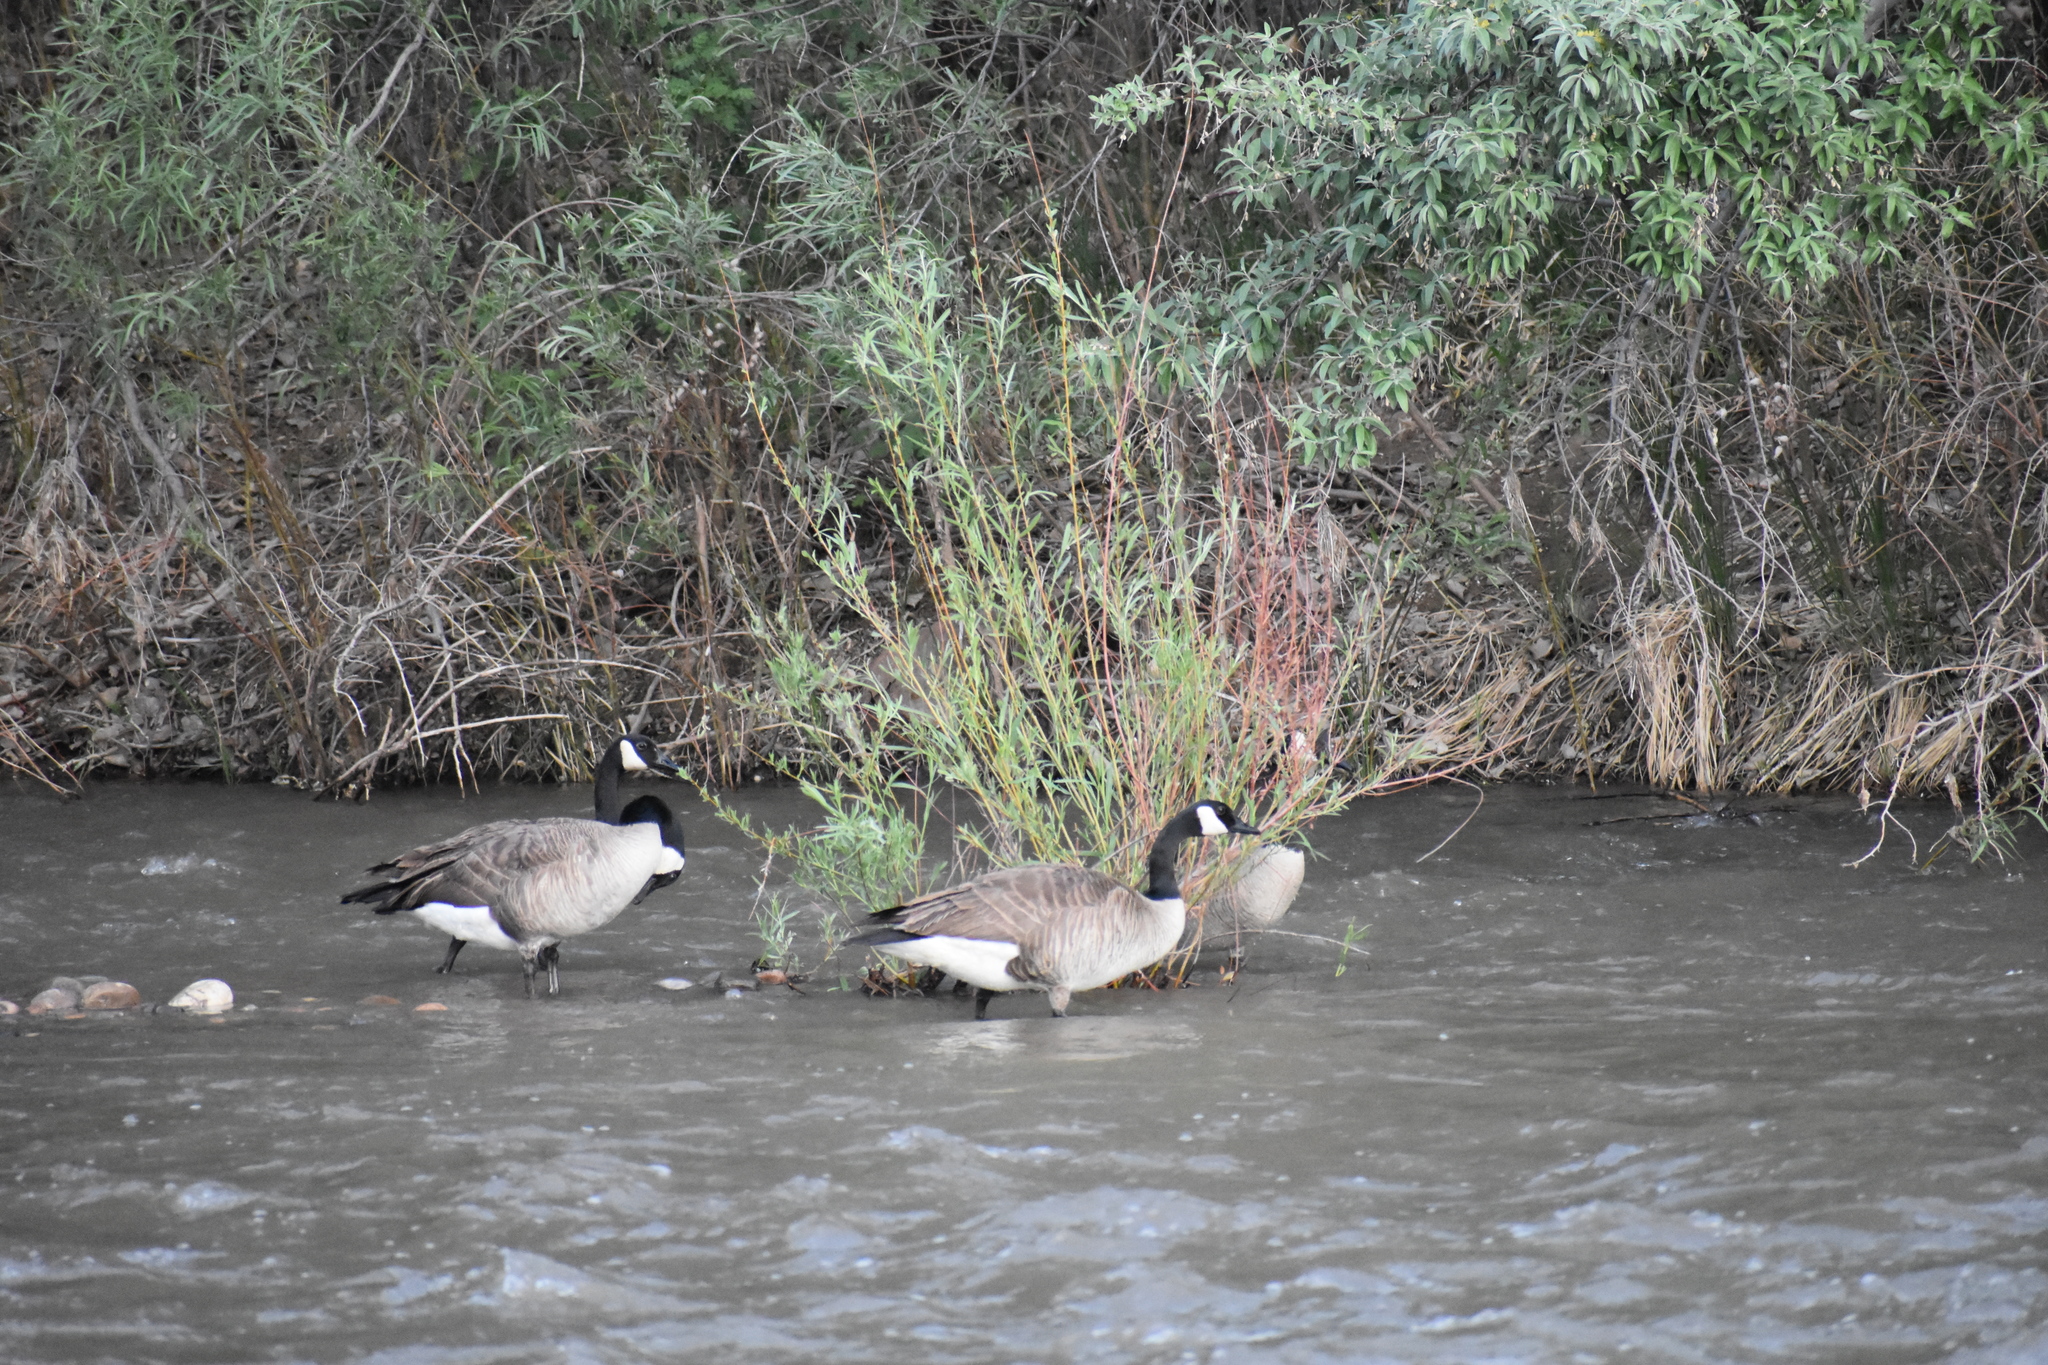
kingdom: Animalia
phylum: Chordata
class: Aves
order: Anseriformes
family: Anatidae
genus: Branta
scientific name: Branta canadensis
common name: Canada goose
